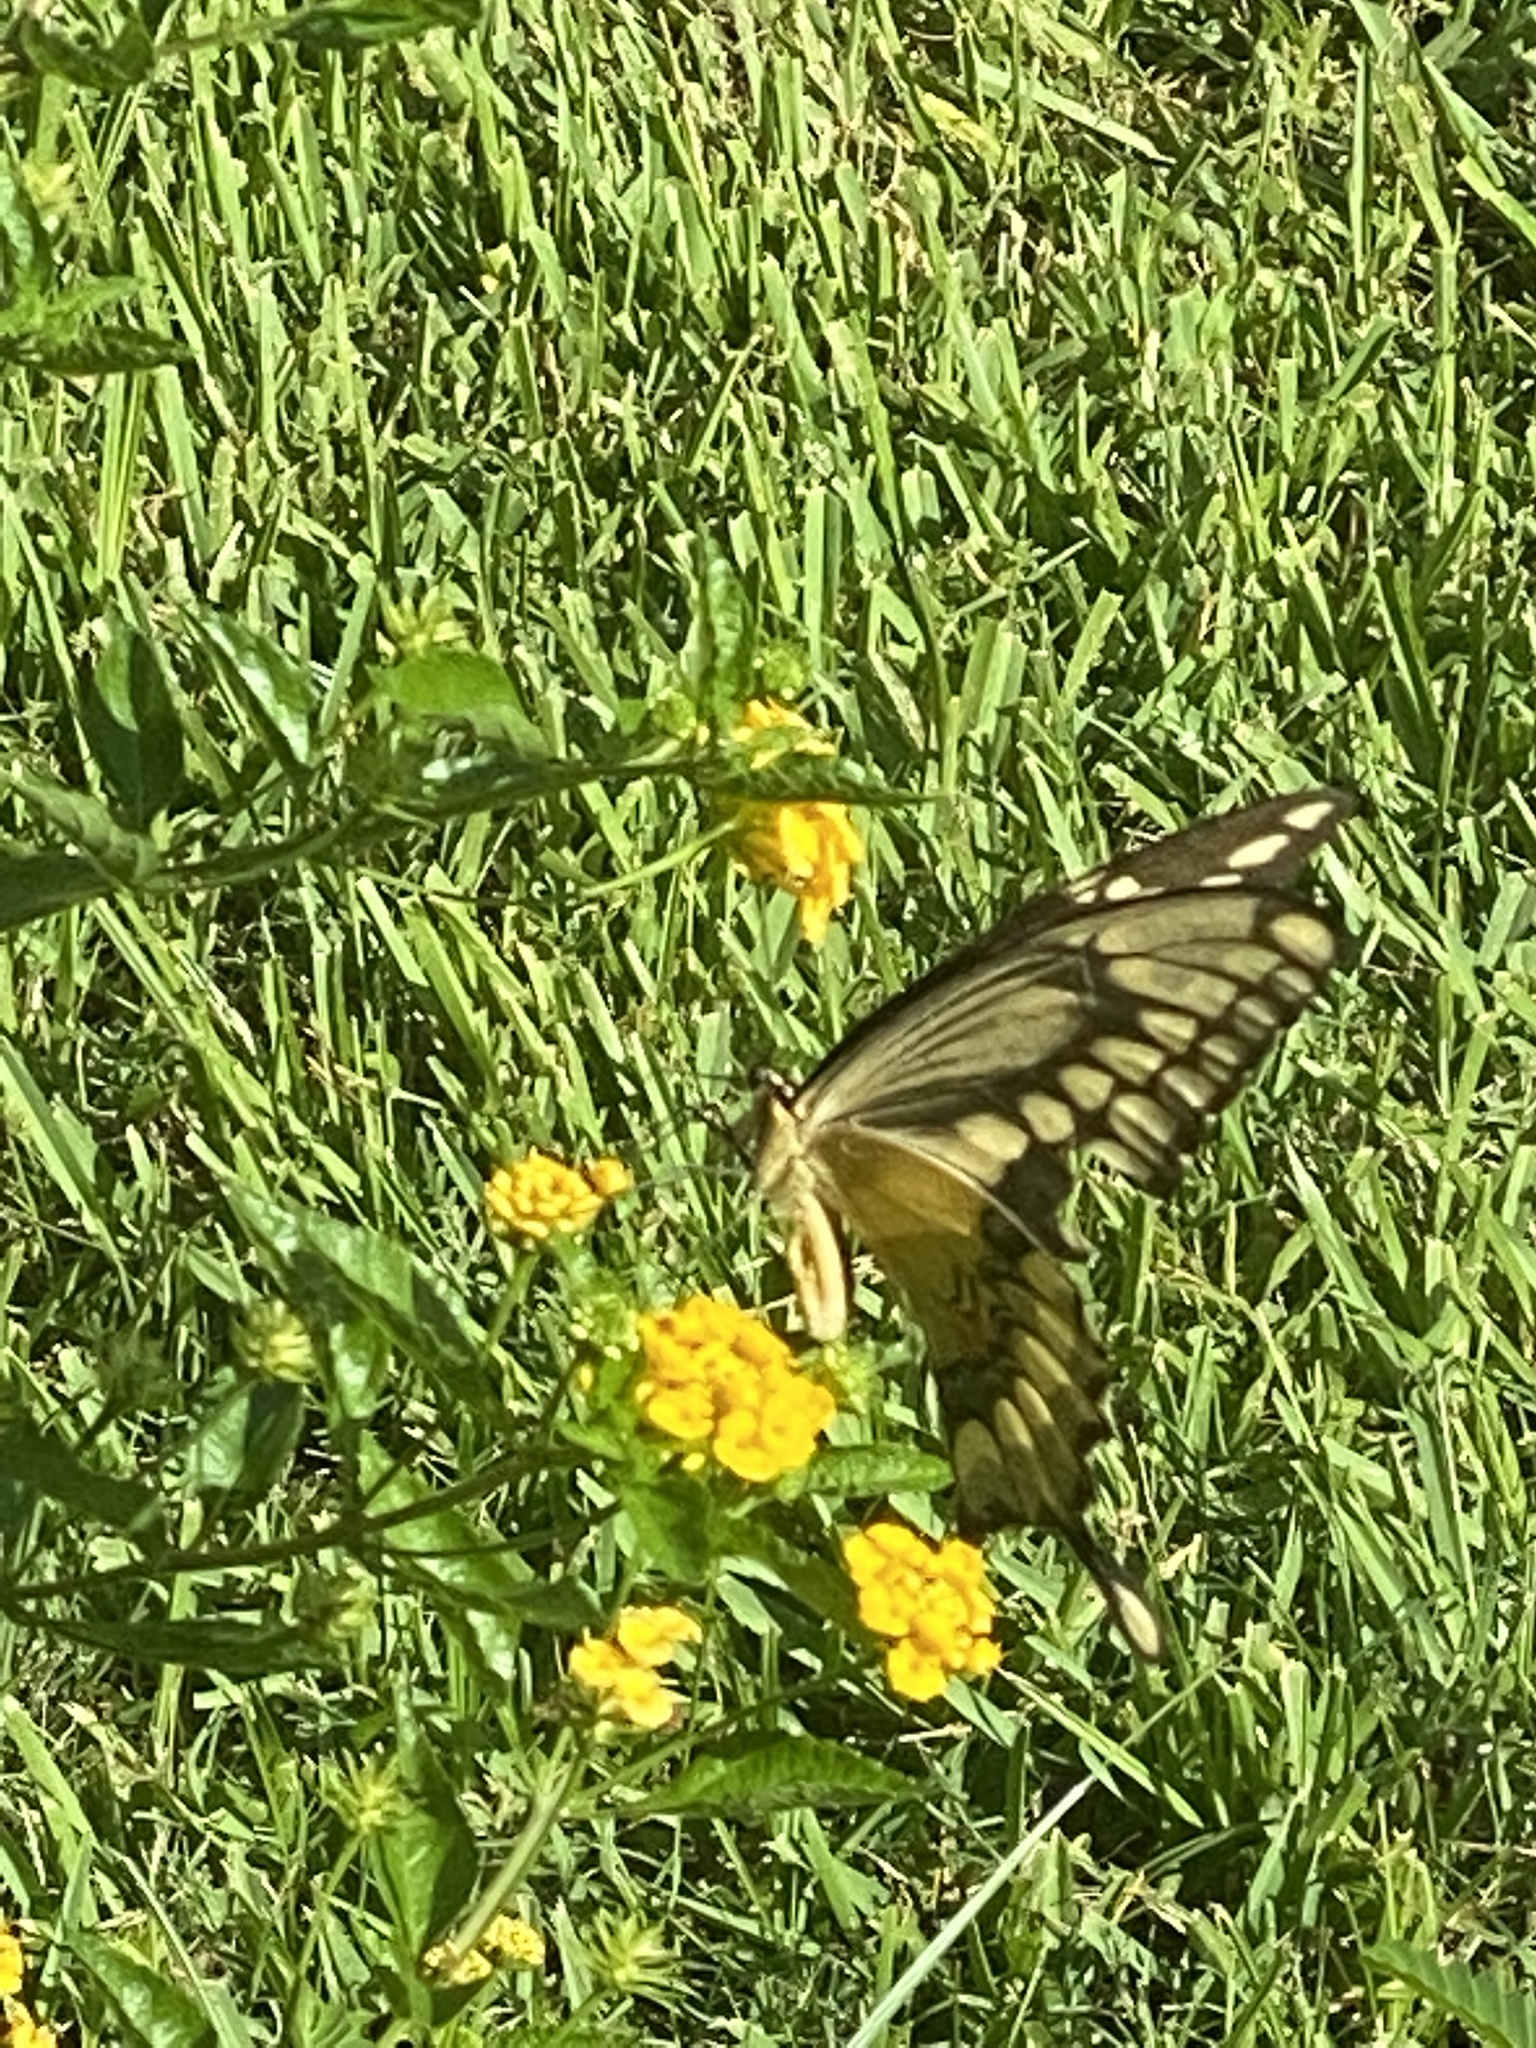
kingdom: Animalia
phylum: Arthropoda
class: Insecta
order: Lepidoptera
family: Papilionidae
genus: Papilio
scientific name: Papilio cresphontes
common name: Giant swallowtail
